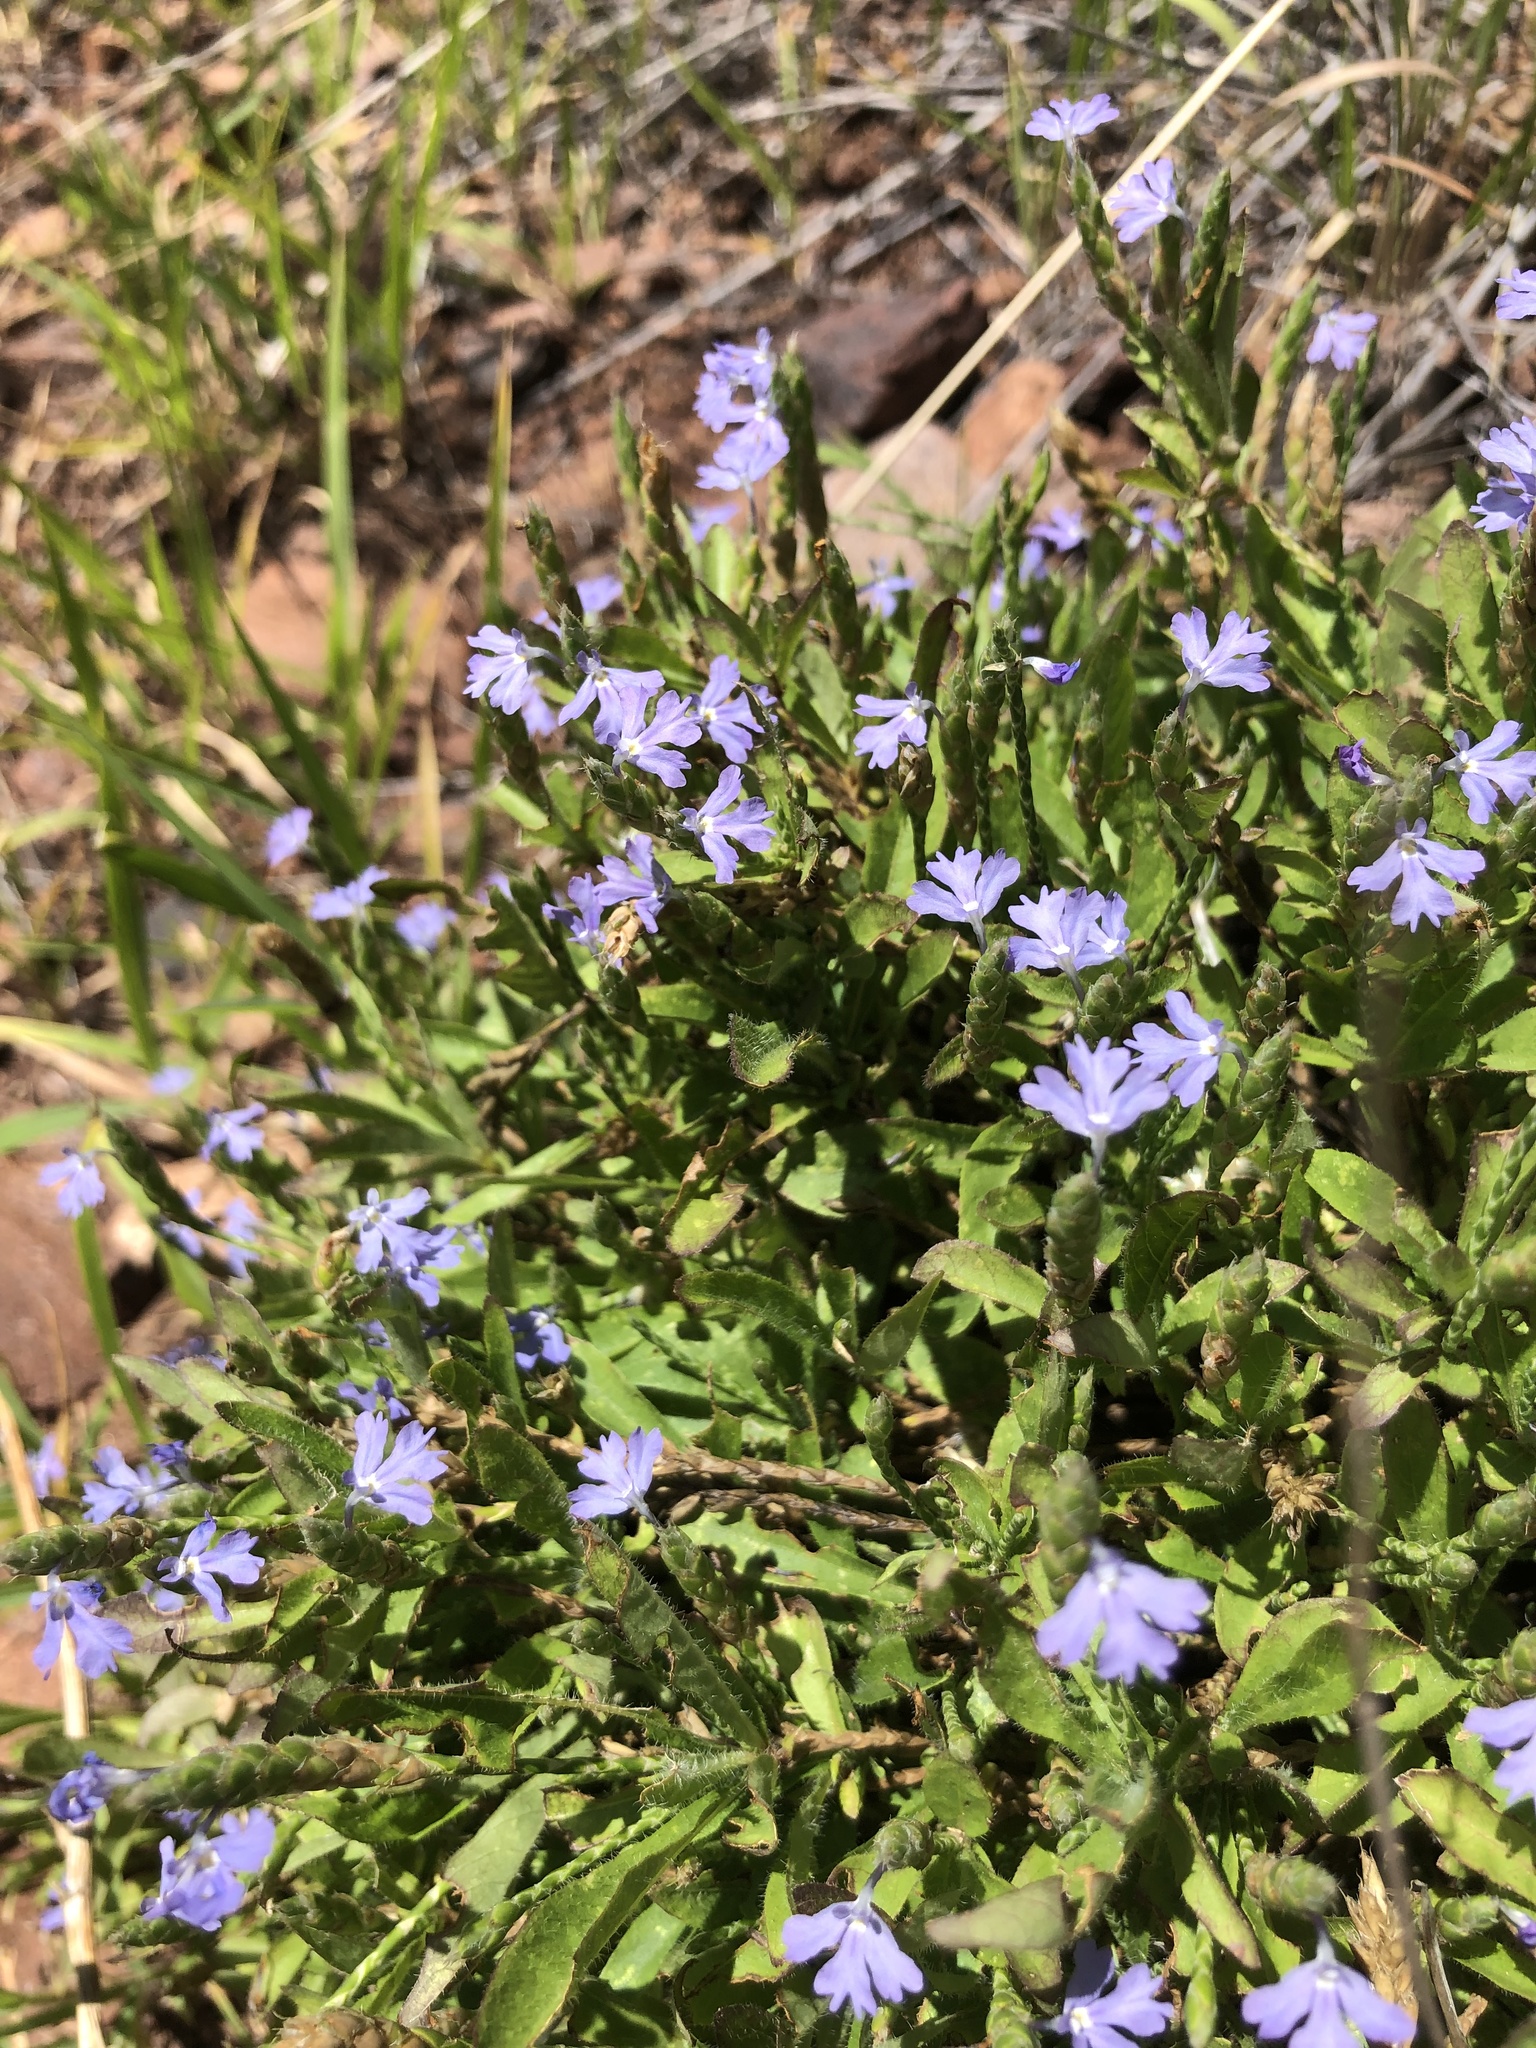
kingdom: Plantae
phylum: Tracheophyta
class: Magnoliopsida
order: Lamiales
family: Acanthaceae
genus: Elytraria
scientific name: Elytraria imbricata
